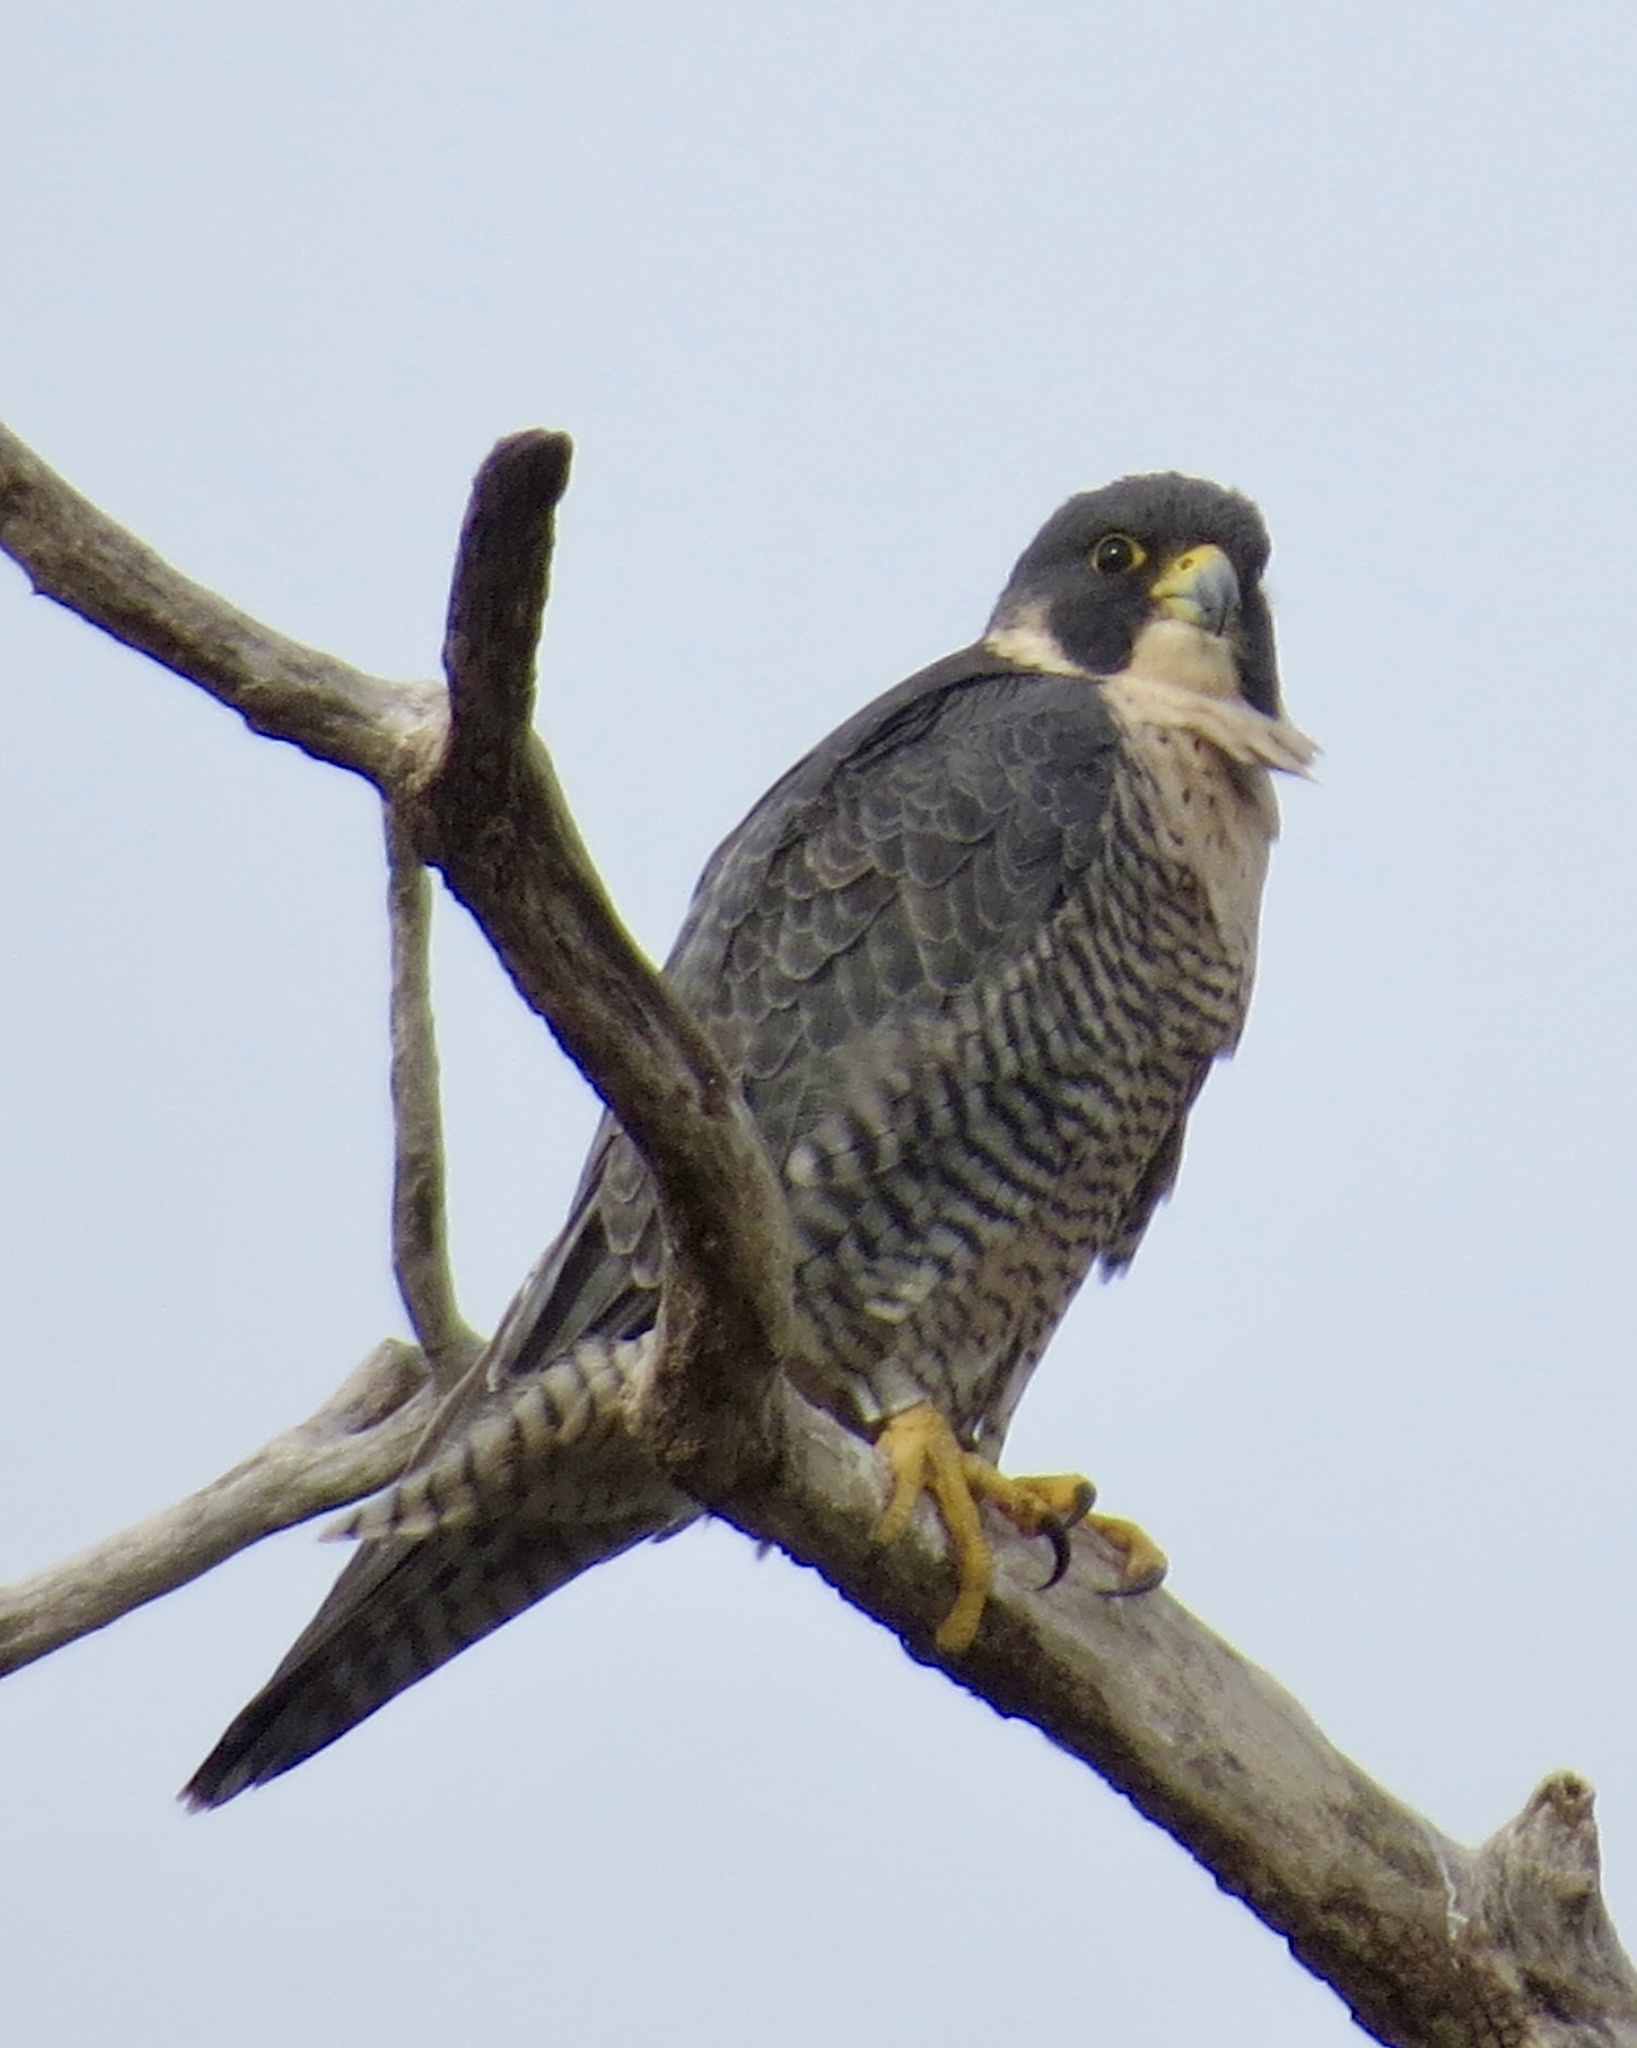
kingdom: Animalia
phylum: Chordata
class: Aves
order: Falconiformes
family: Falconidae
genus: Falco
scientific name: Falco peregrinus
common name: Peregrine falcon
